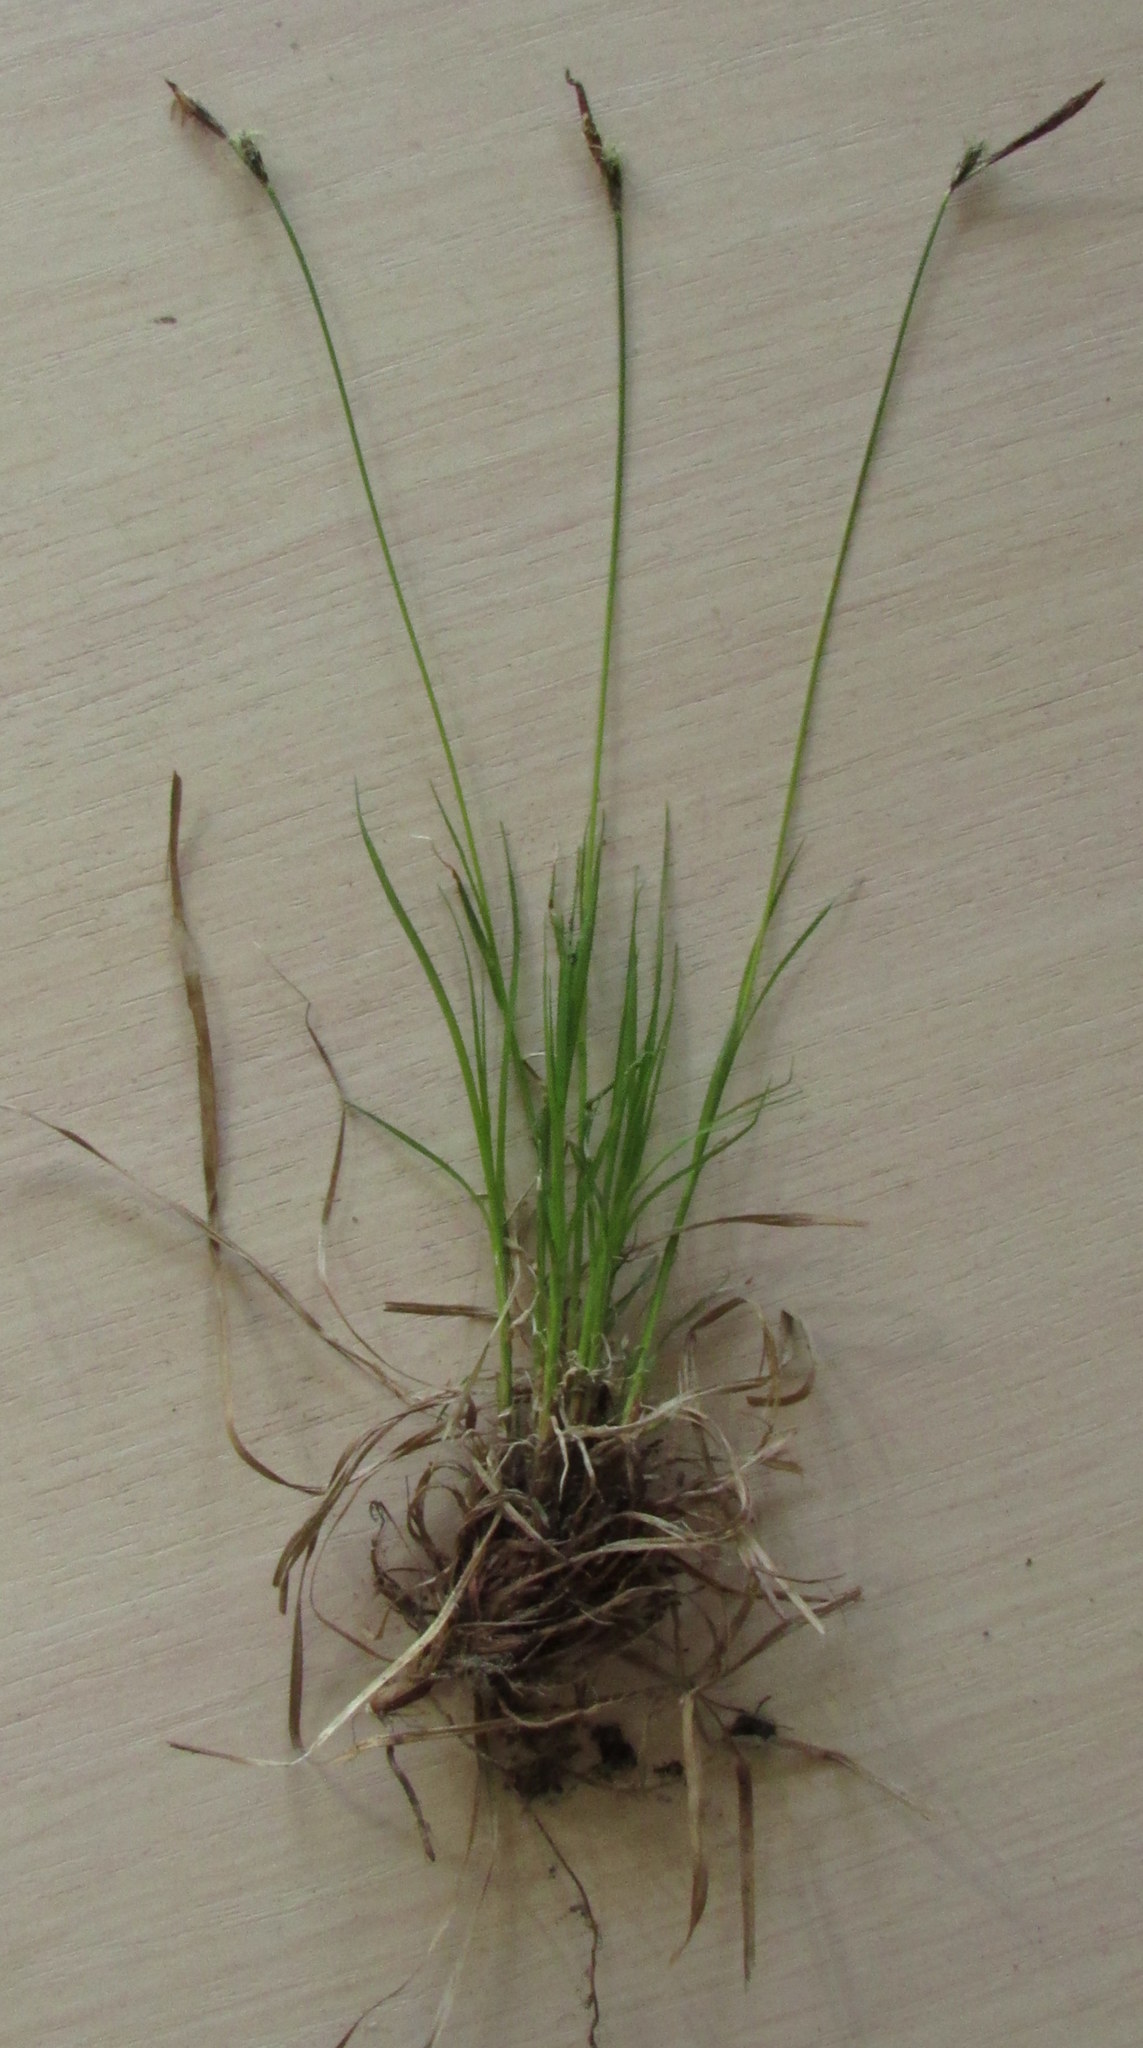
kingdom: Plantae
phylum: Tracheophyta
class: Liliopsida
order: Poales
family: Cyperaceae
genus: Carex
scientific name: Carex montana
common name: Soft-leaved sedge
